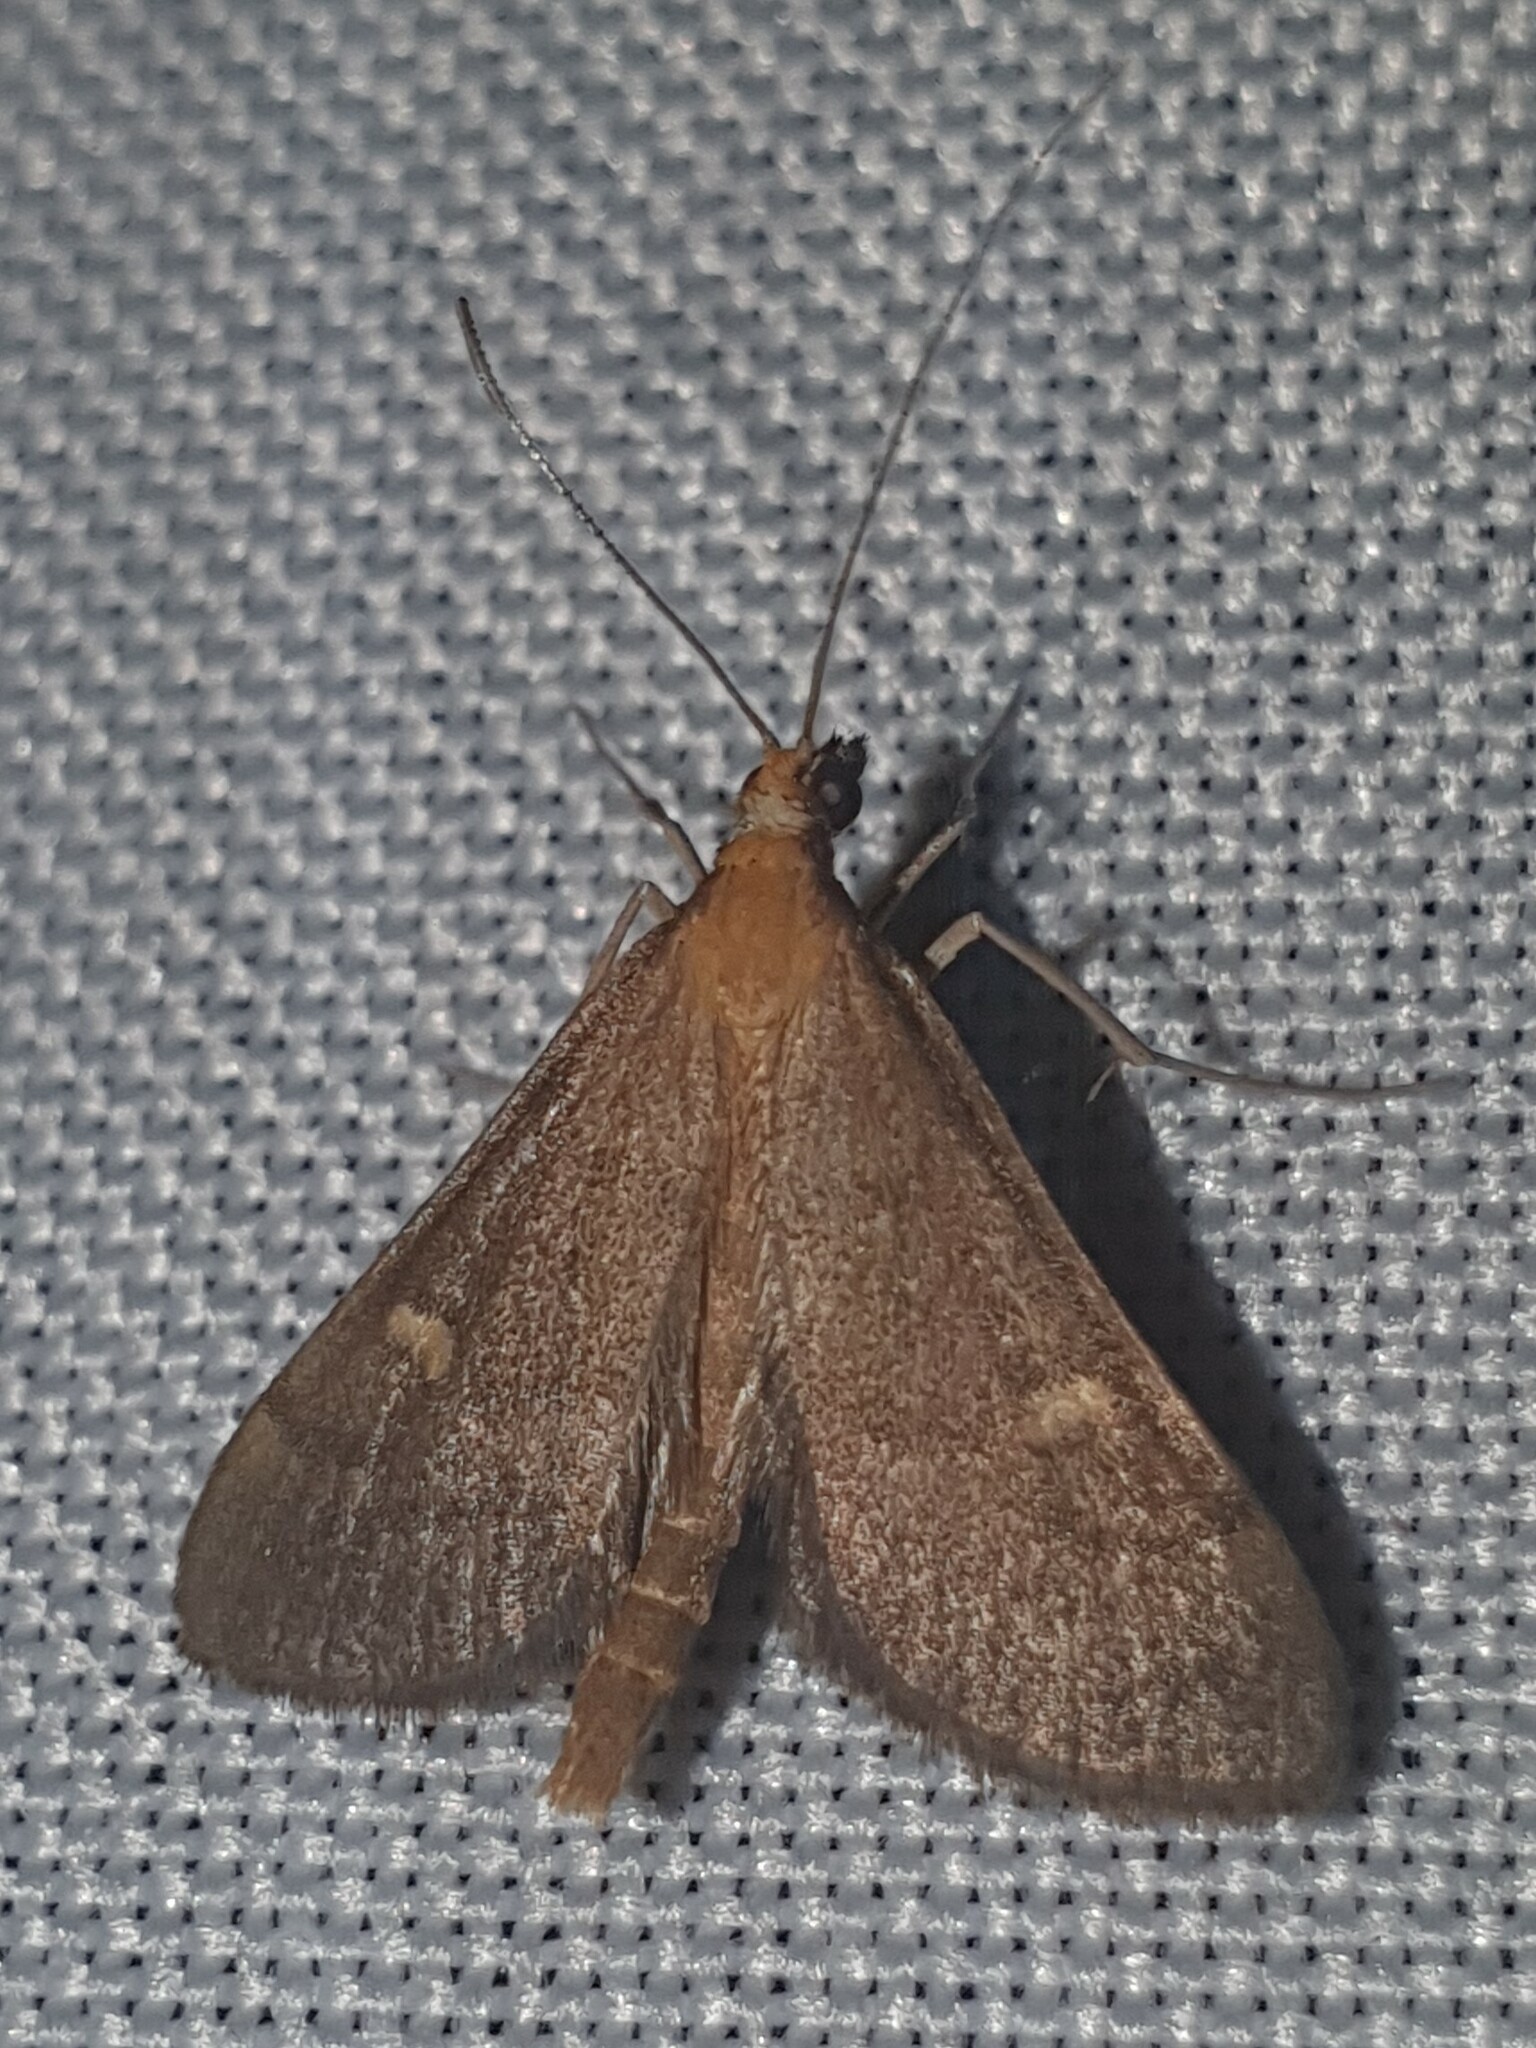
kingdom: Animalia
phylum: Arthropoda
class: Insecta
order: Lepidoptera
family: Crambidae
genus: Stenia
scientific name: Stenia Dolicharthria punctalis
